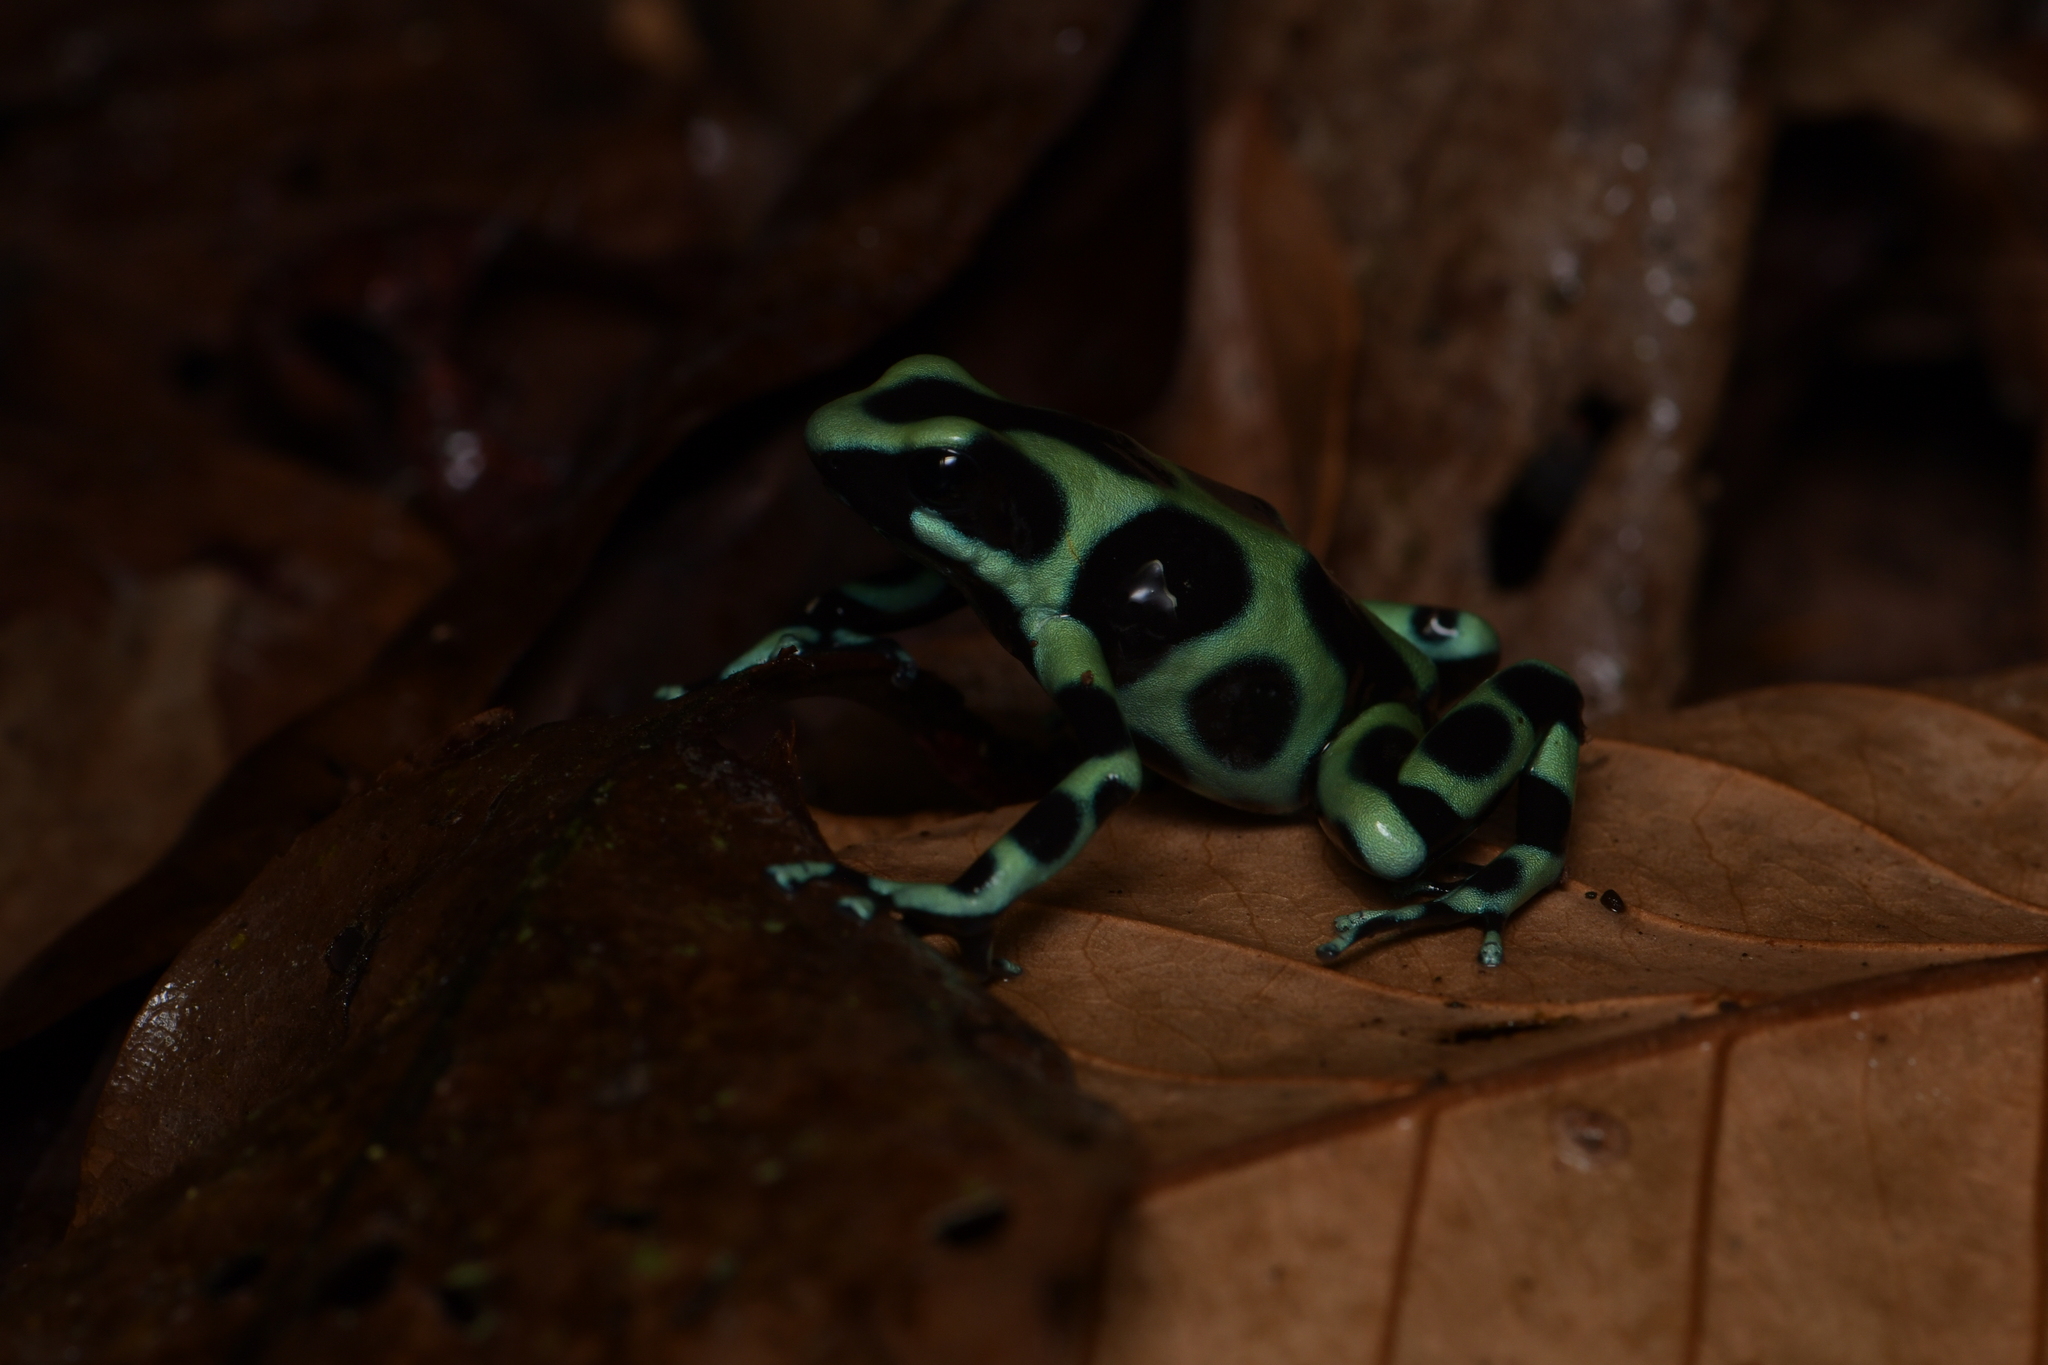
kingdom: Animalia
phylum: Chordata
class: Amphibia
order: Anura
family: Dendrobatidae
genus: Dendrobates
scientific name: Dendrobates auratus
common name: Green and black poison dart frog
